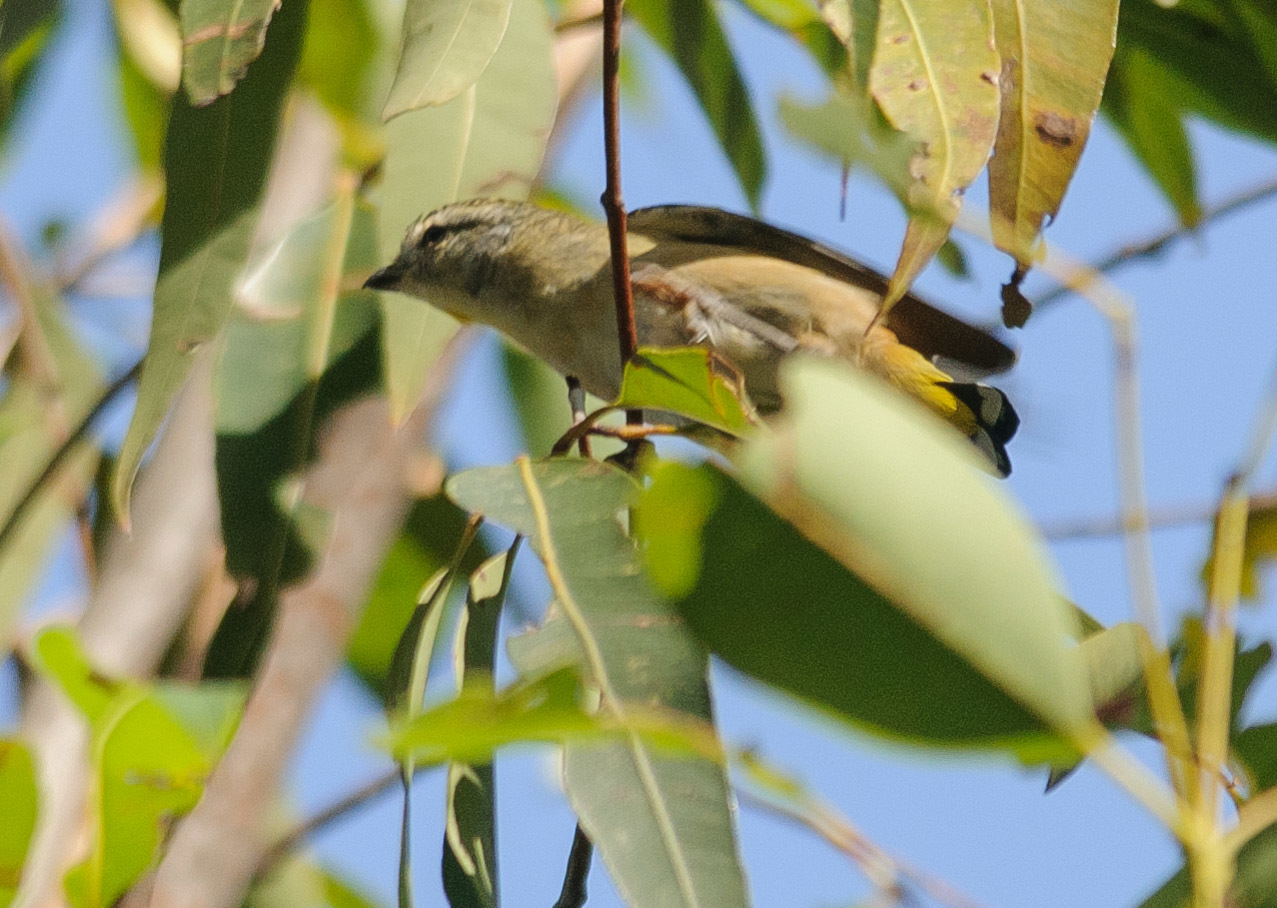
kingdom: Animalia
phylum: Chordata
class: Aves
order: Passeriformes
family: Pardalotidae
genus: Pardalotus
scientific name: Pardalotus punctatus
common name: Spotted pardalote
